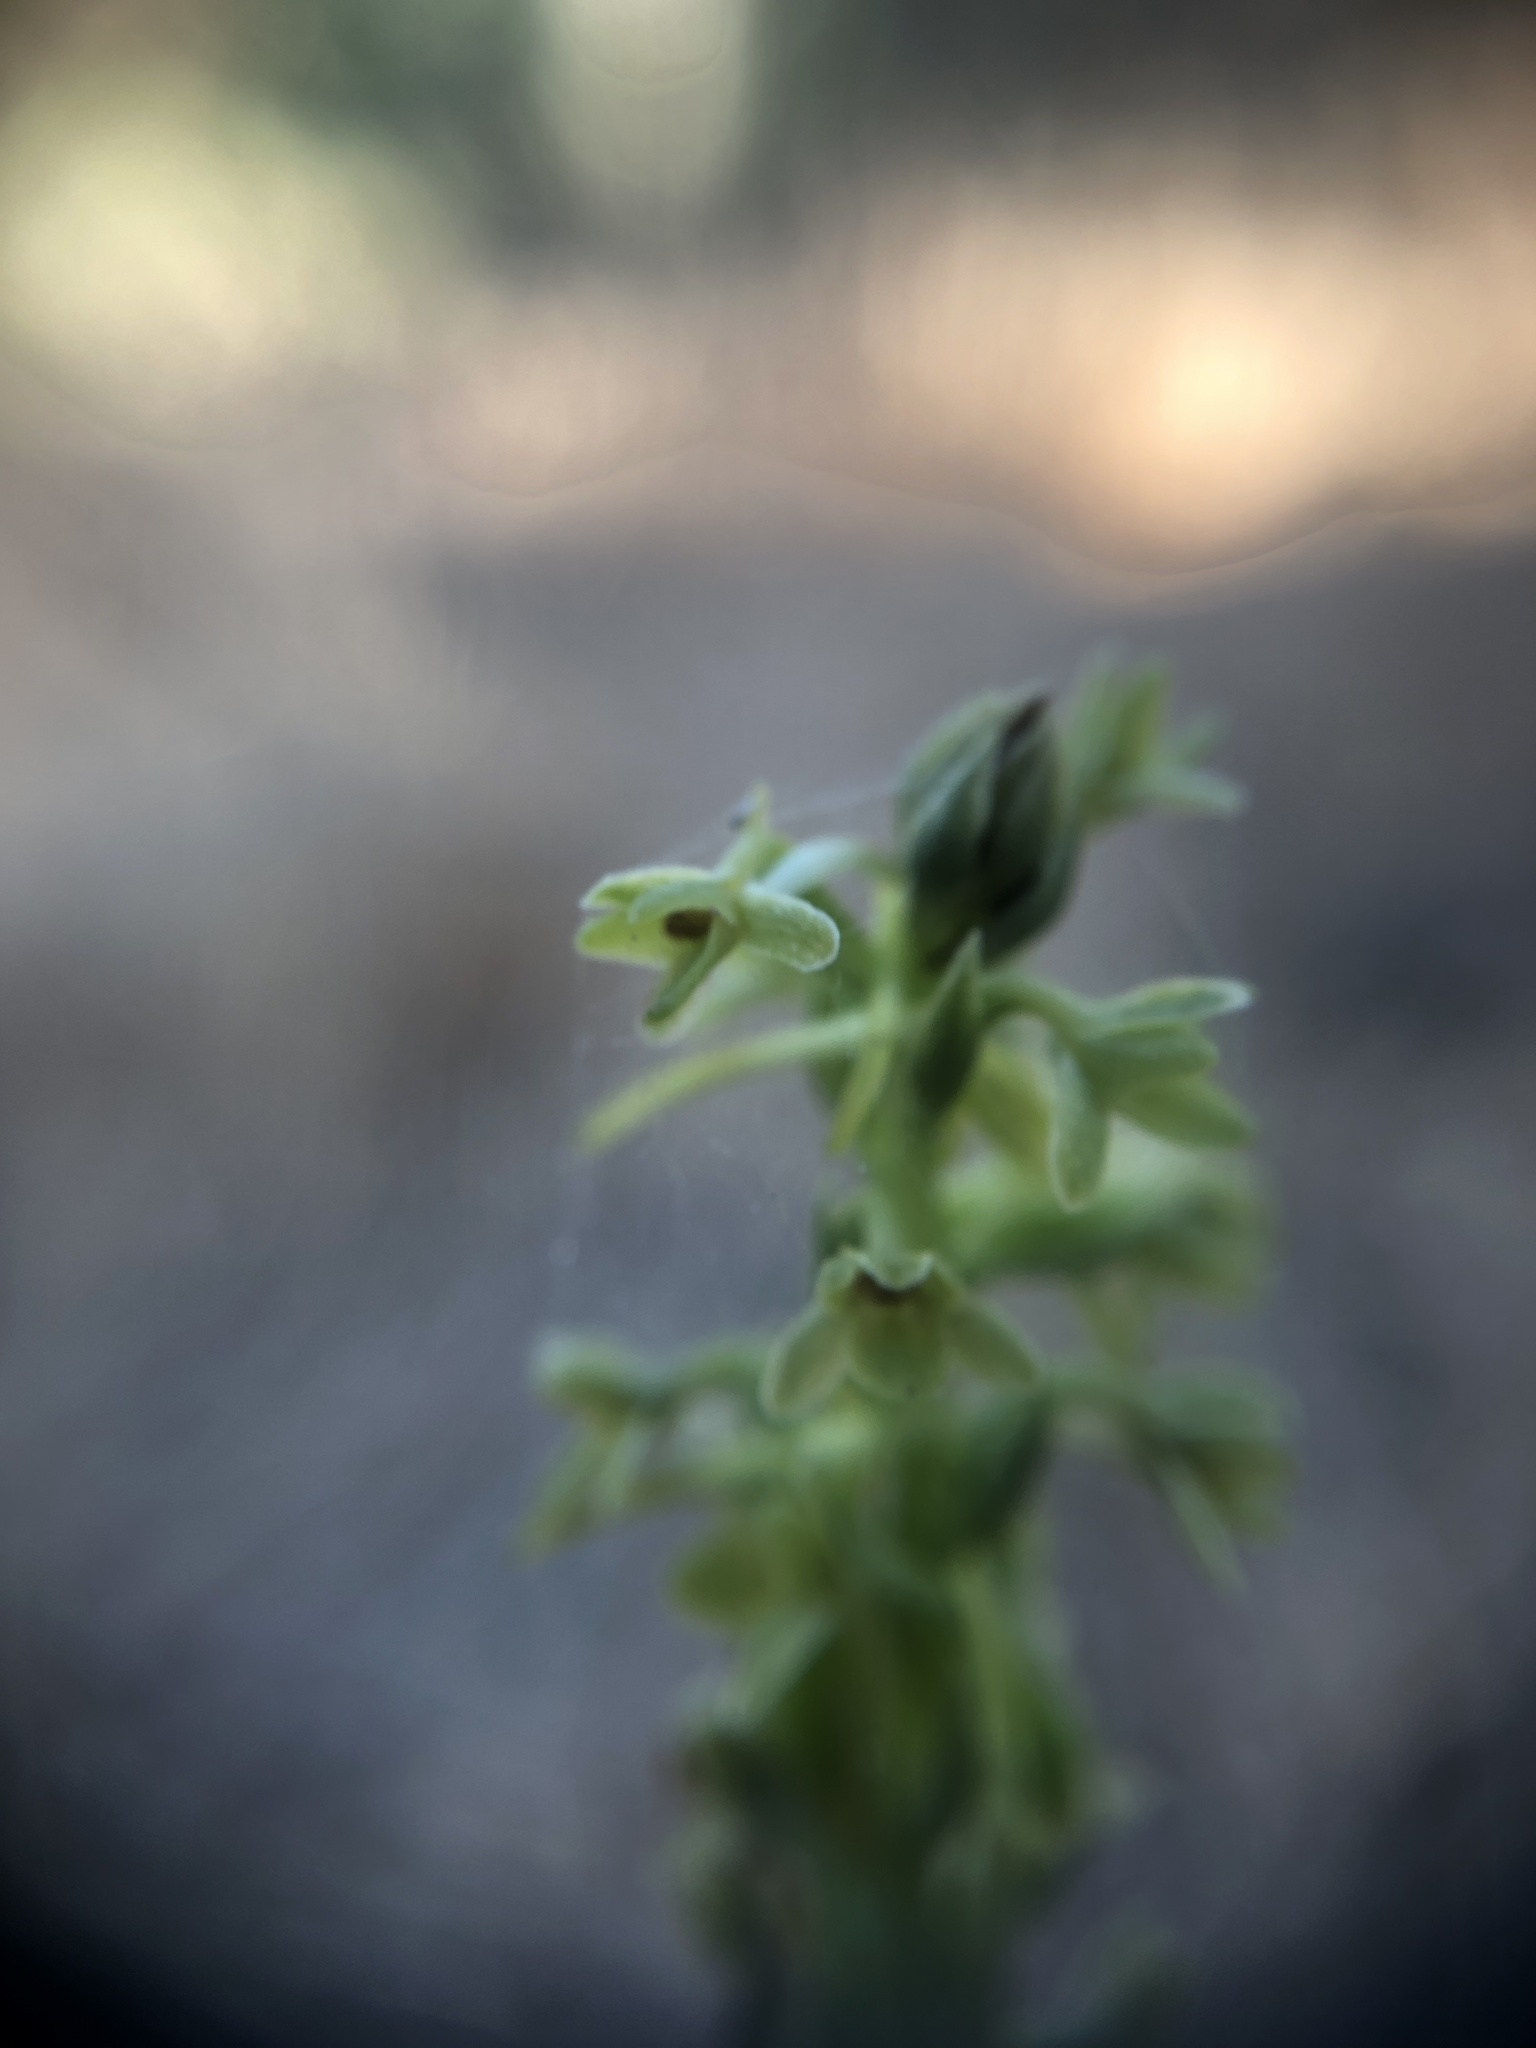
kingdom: Plantae
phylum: Tracheophyta
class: Liliopsida
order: Asparagales
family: Orchidaceae
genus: Platanthera
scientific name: Platanthera michaelii
